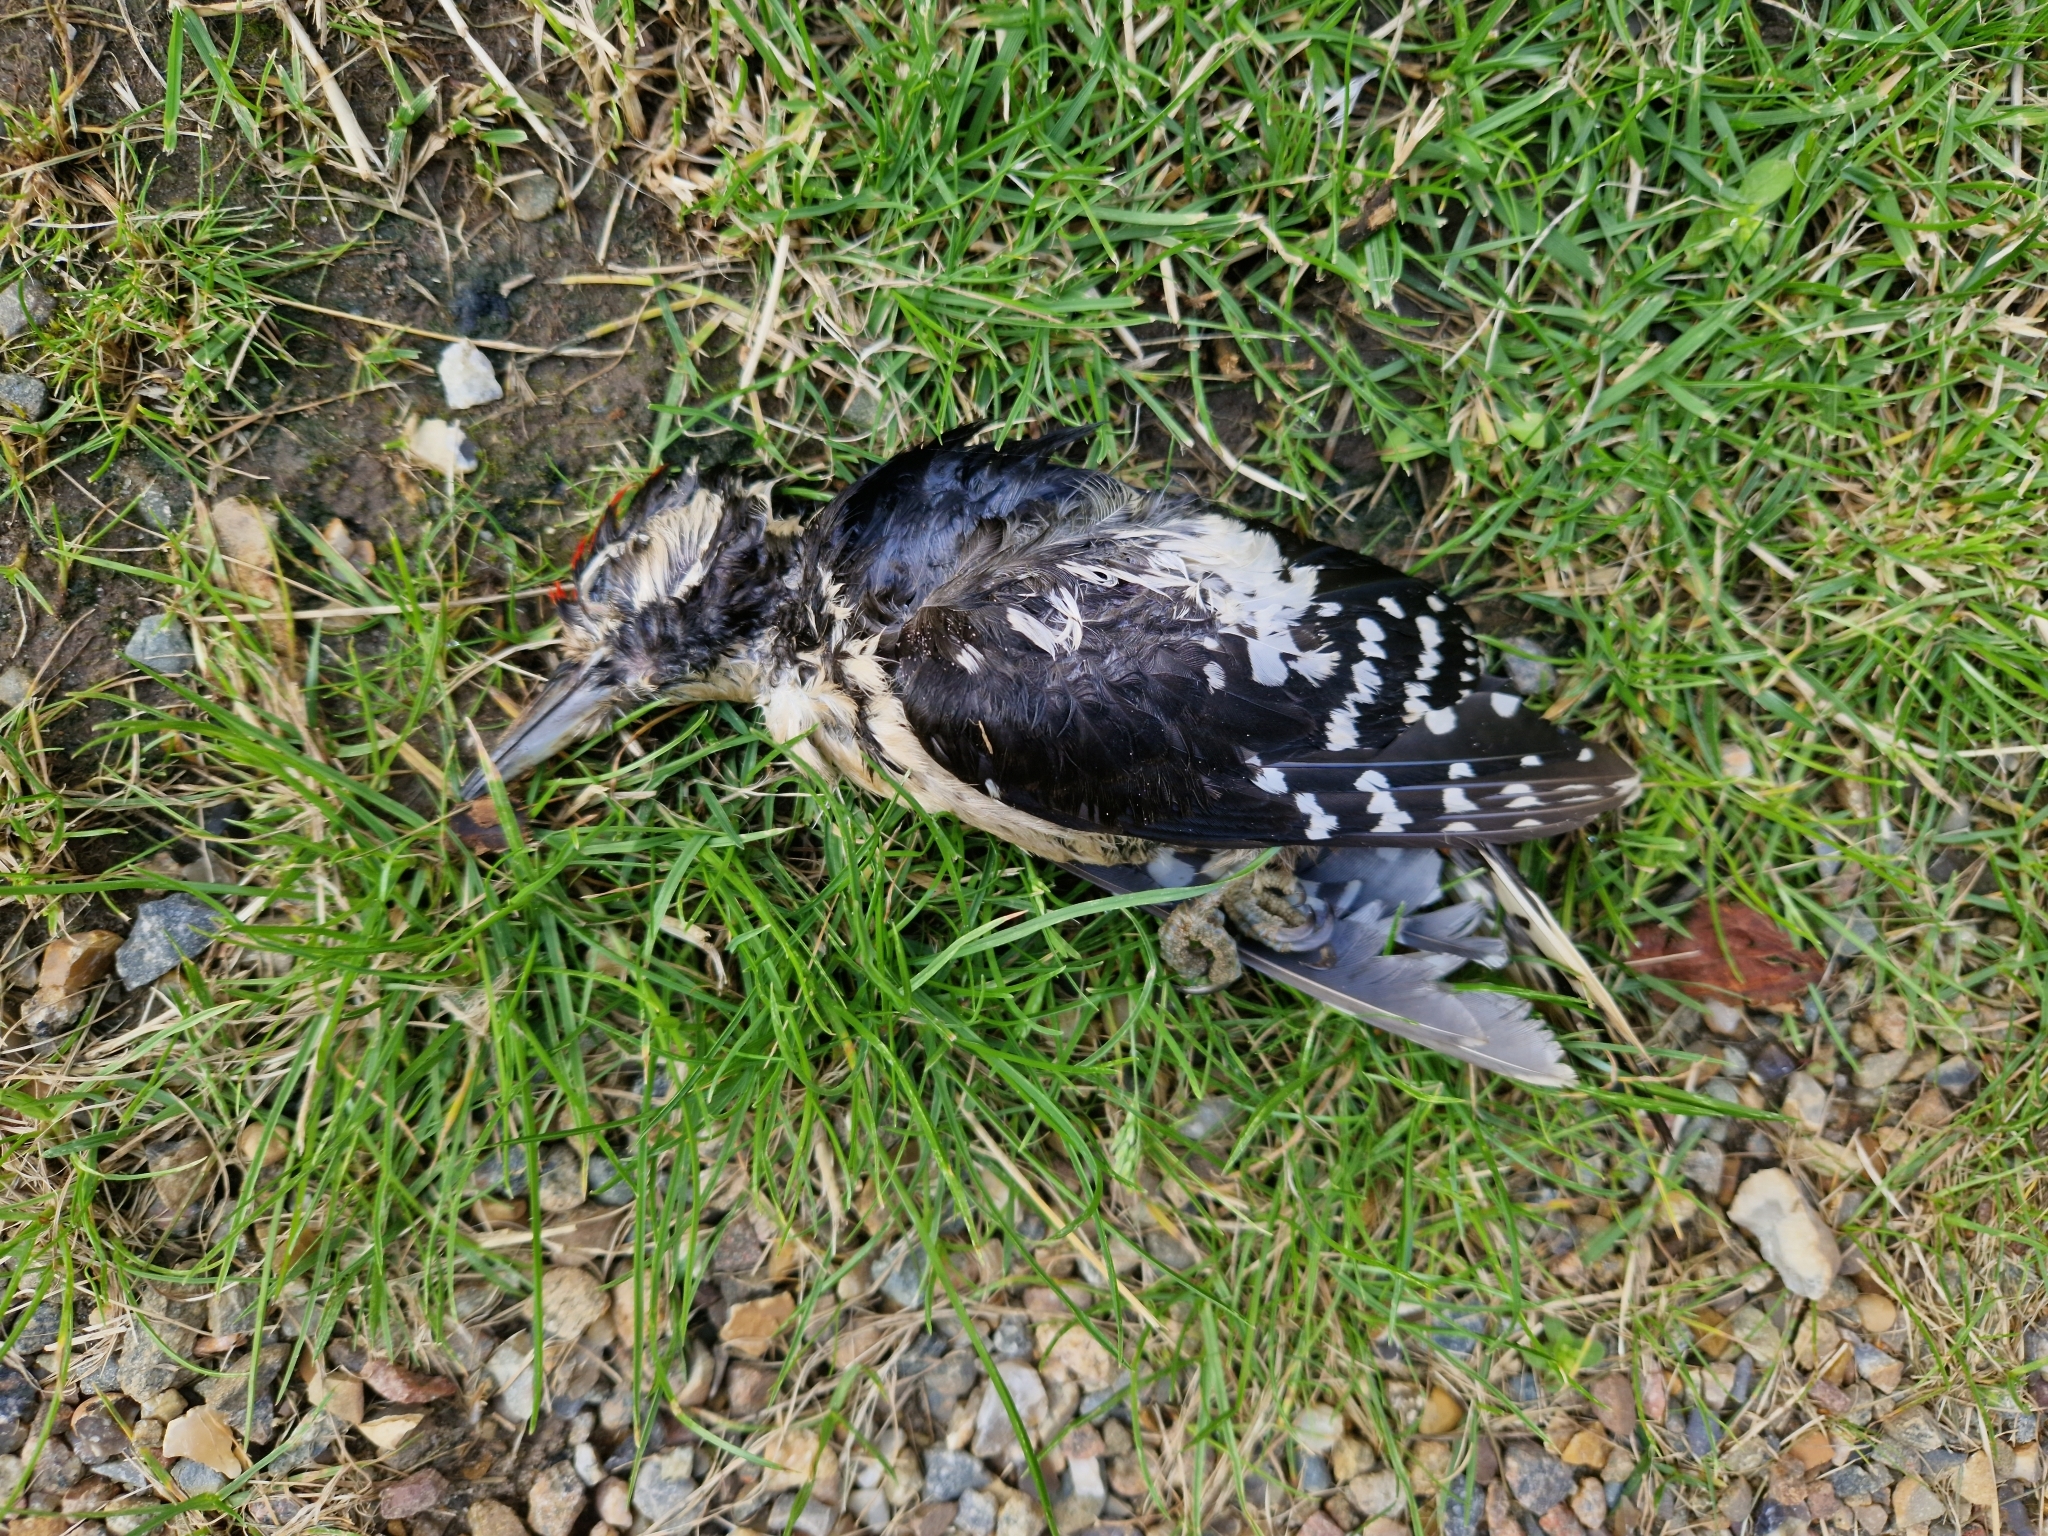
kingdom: Animalia
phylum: Chordata
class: Aves
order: Piciformes
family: Picidae
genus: Dendrocopos
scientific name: Dendrocopos major
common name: Great spotted woodpecker
